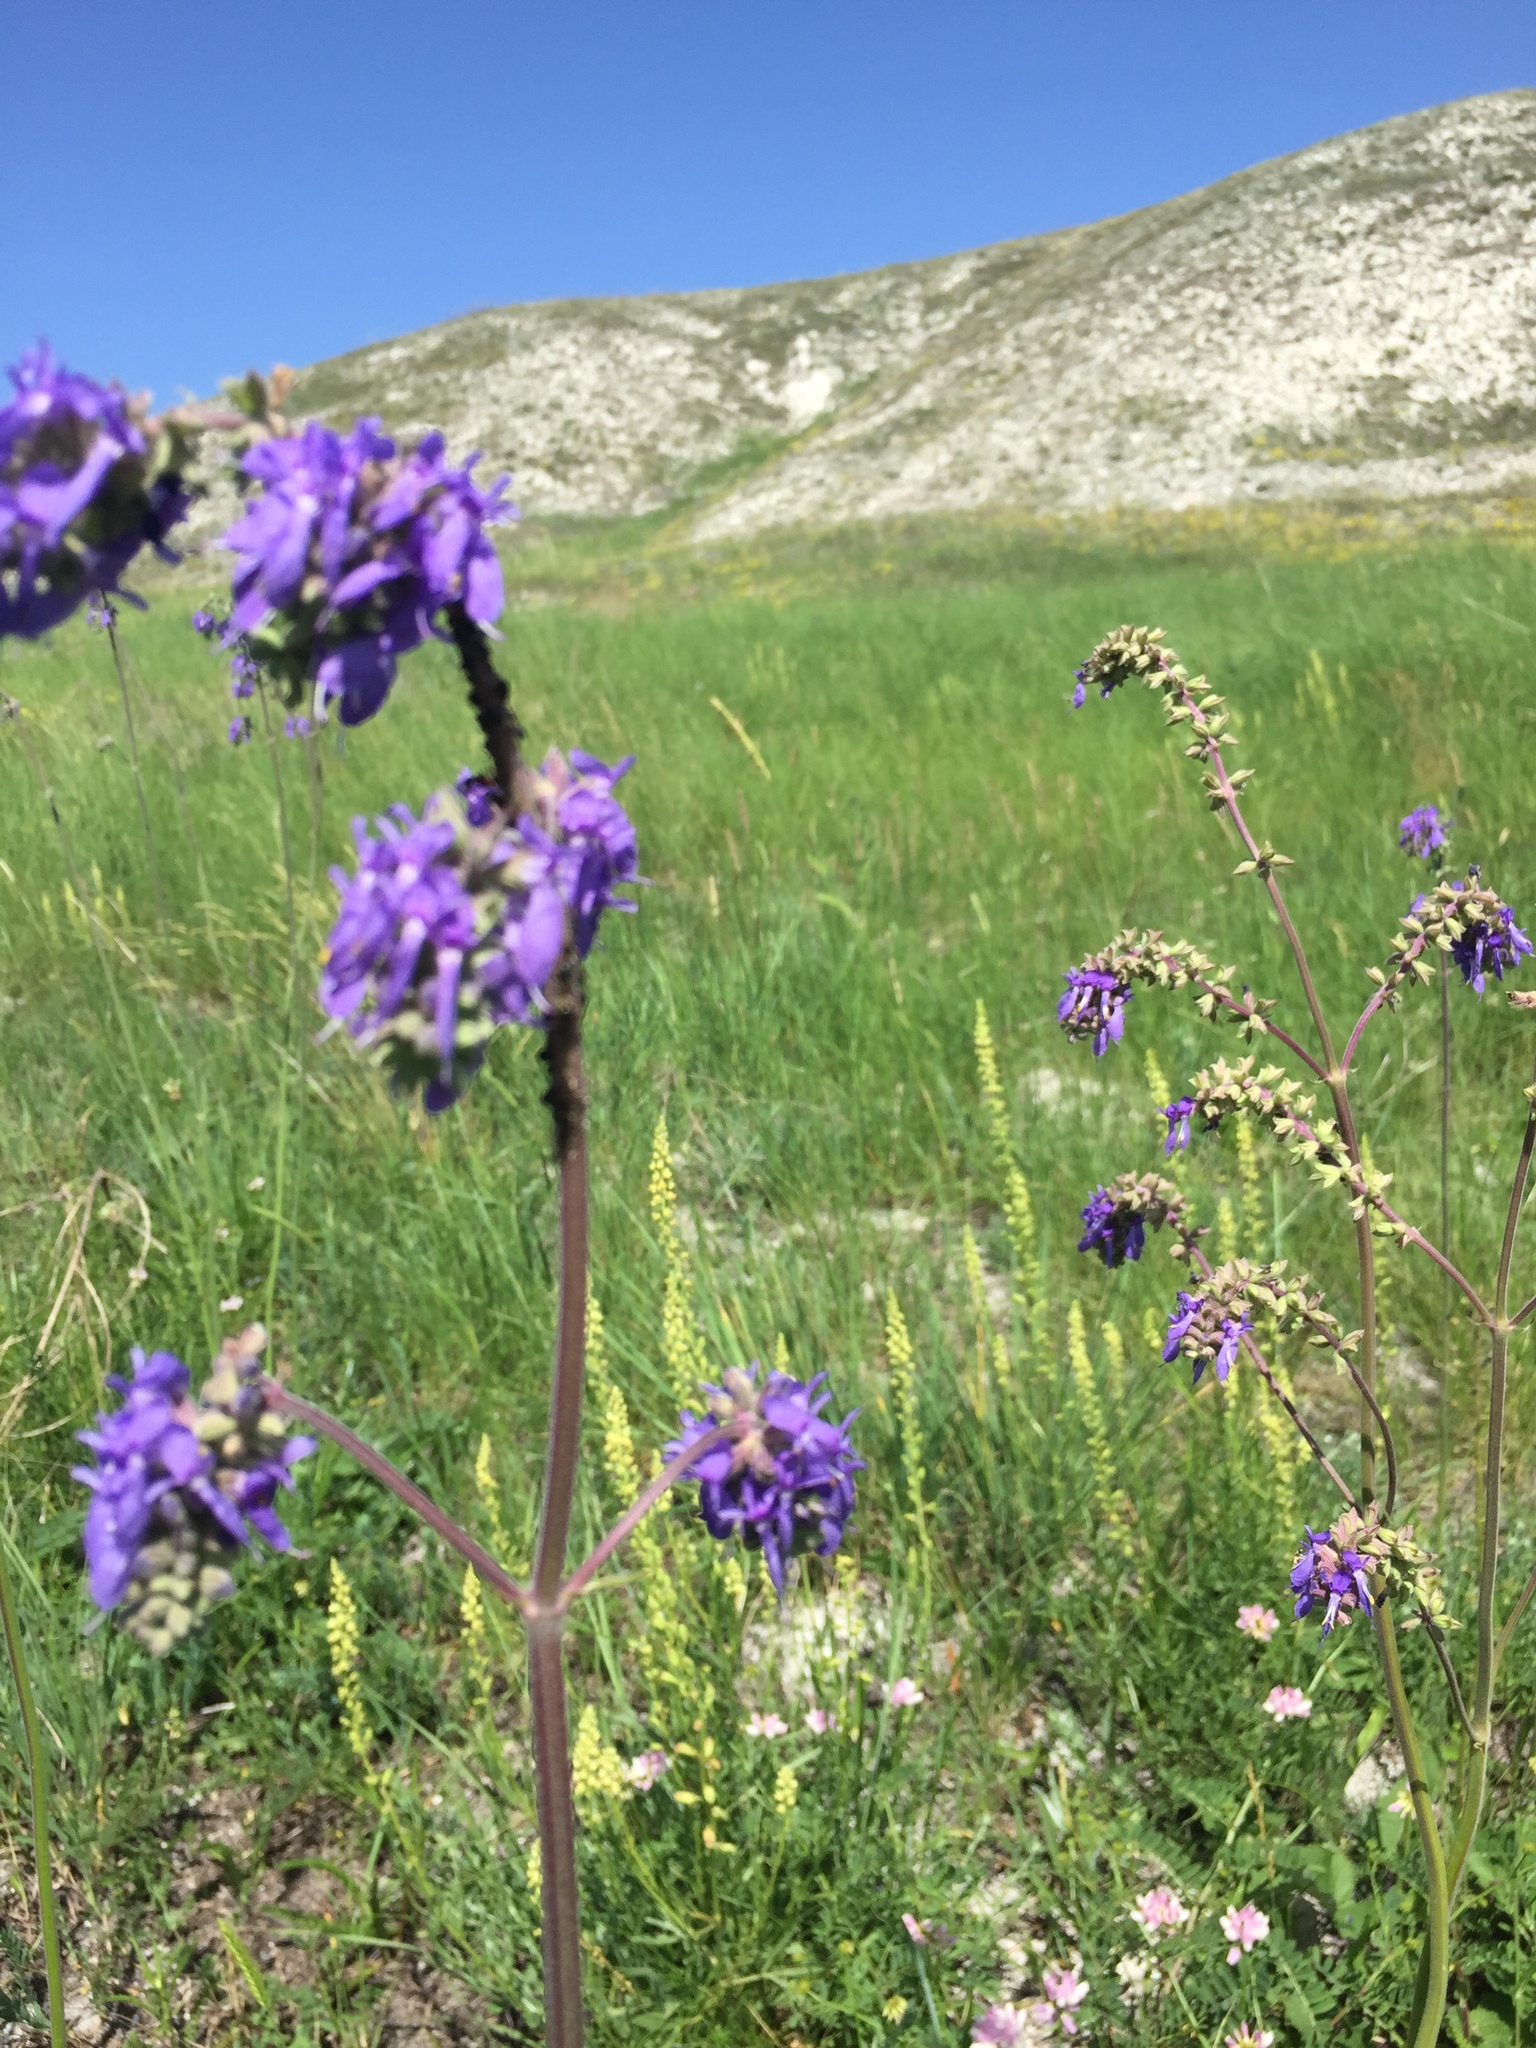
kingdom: Plantae
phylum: Tracheophyta
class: Magnoliopsida
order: Lamiales
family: Lamiaceae
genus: Salvia
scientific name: Salvia nutans
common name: Nodding sage
